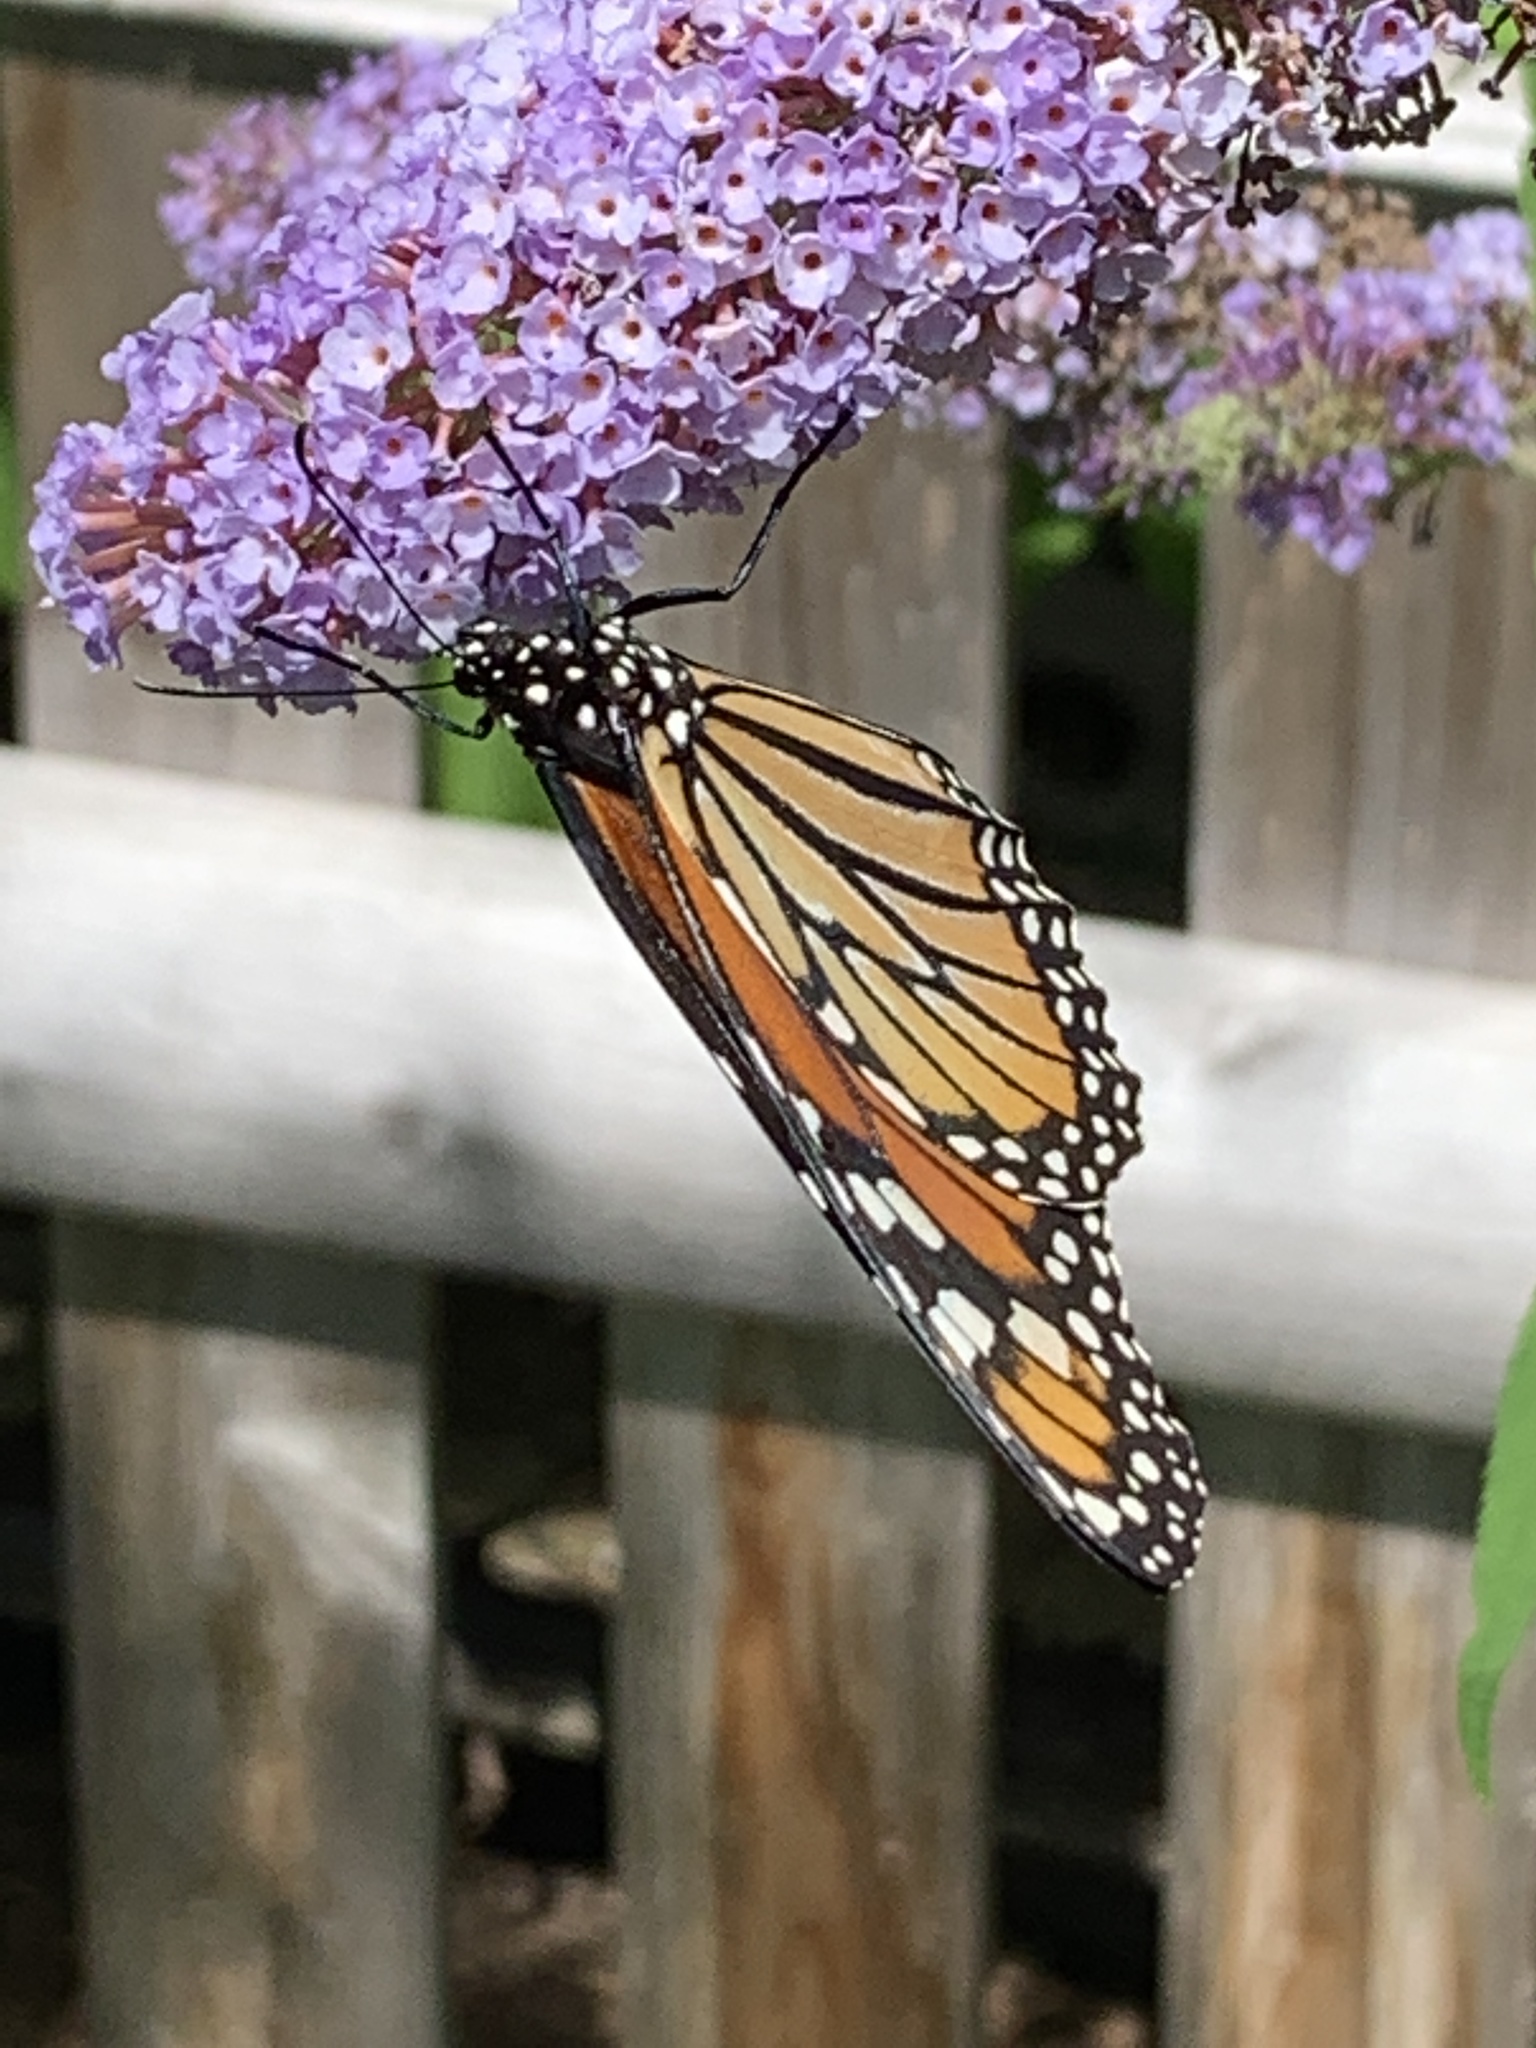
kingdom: Animalia
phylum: Arthropoda
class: Insecta
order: Lepidoptera
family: Nymphalidae
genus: Danaus
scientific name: Danaus plexippus
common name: Monarch
